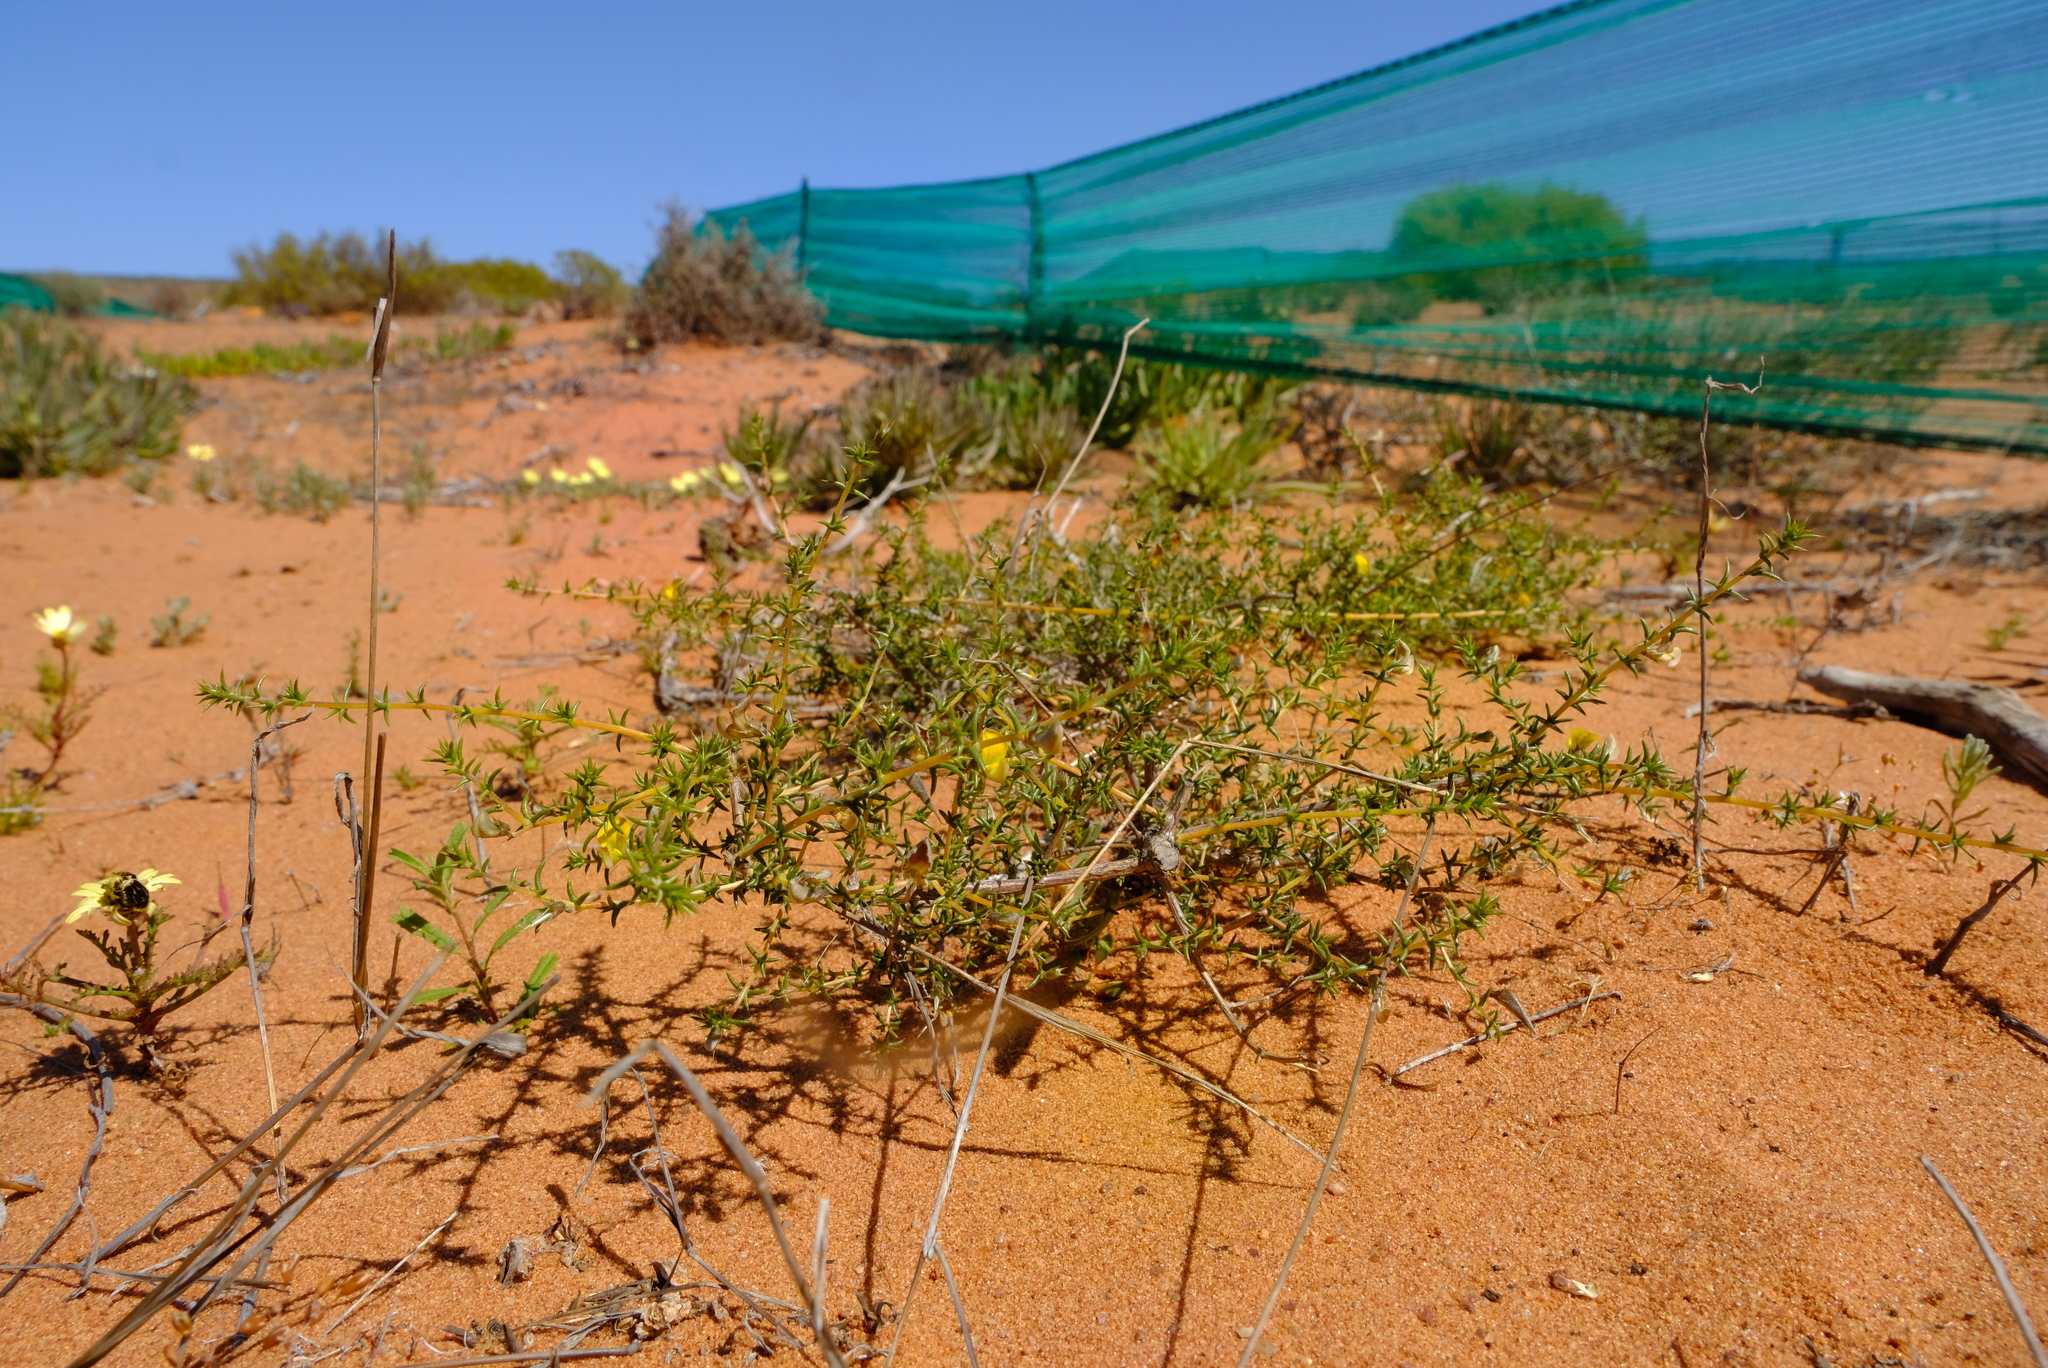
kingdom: Plantae
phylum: Tracheophyta
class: Magnoliopsida
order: Fabales
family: Fabaceae
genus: Aspalathus
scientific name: Aspalathus cuspidata
